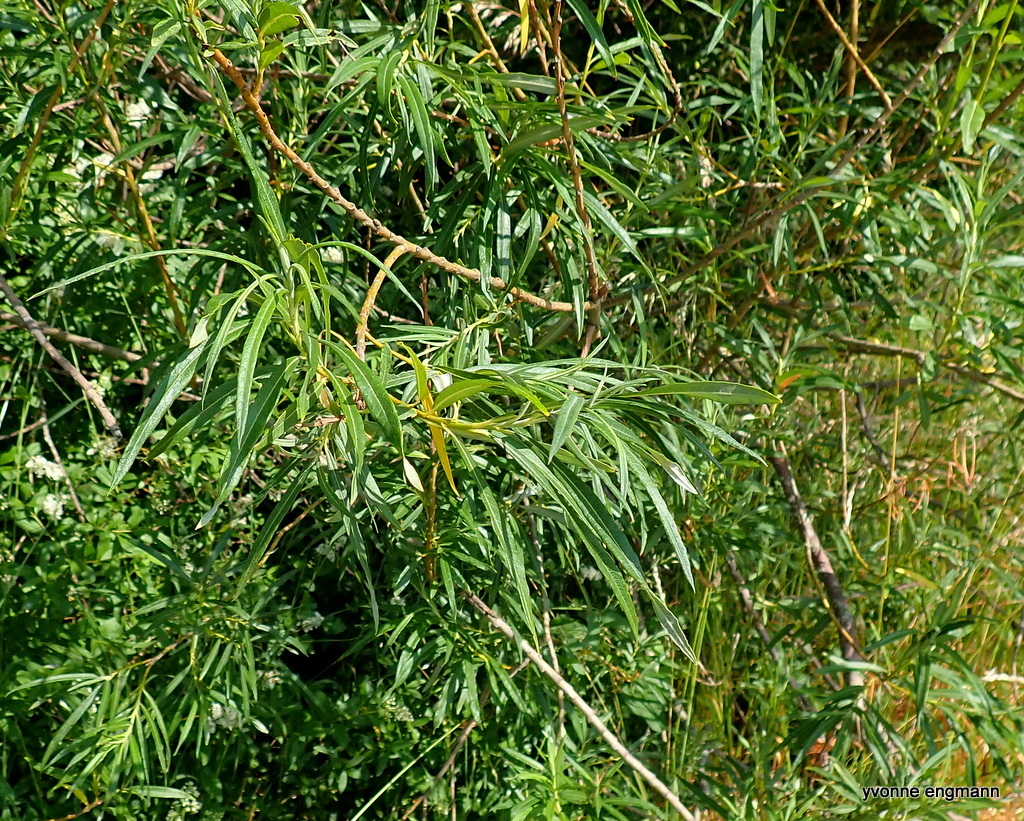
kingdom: Plantae
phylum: Tracheophyta
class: Magnoliopsida
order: Malpighiales
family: Salicaceae
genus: Salix
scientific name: Salix viminalis
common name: Osier
